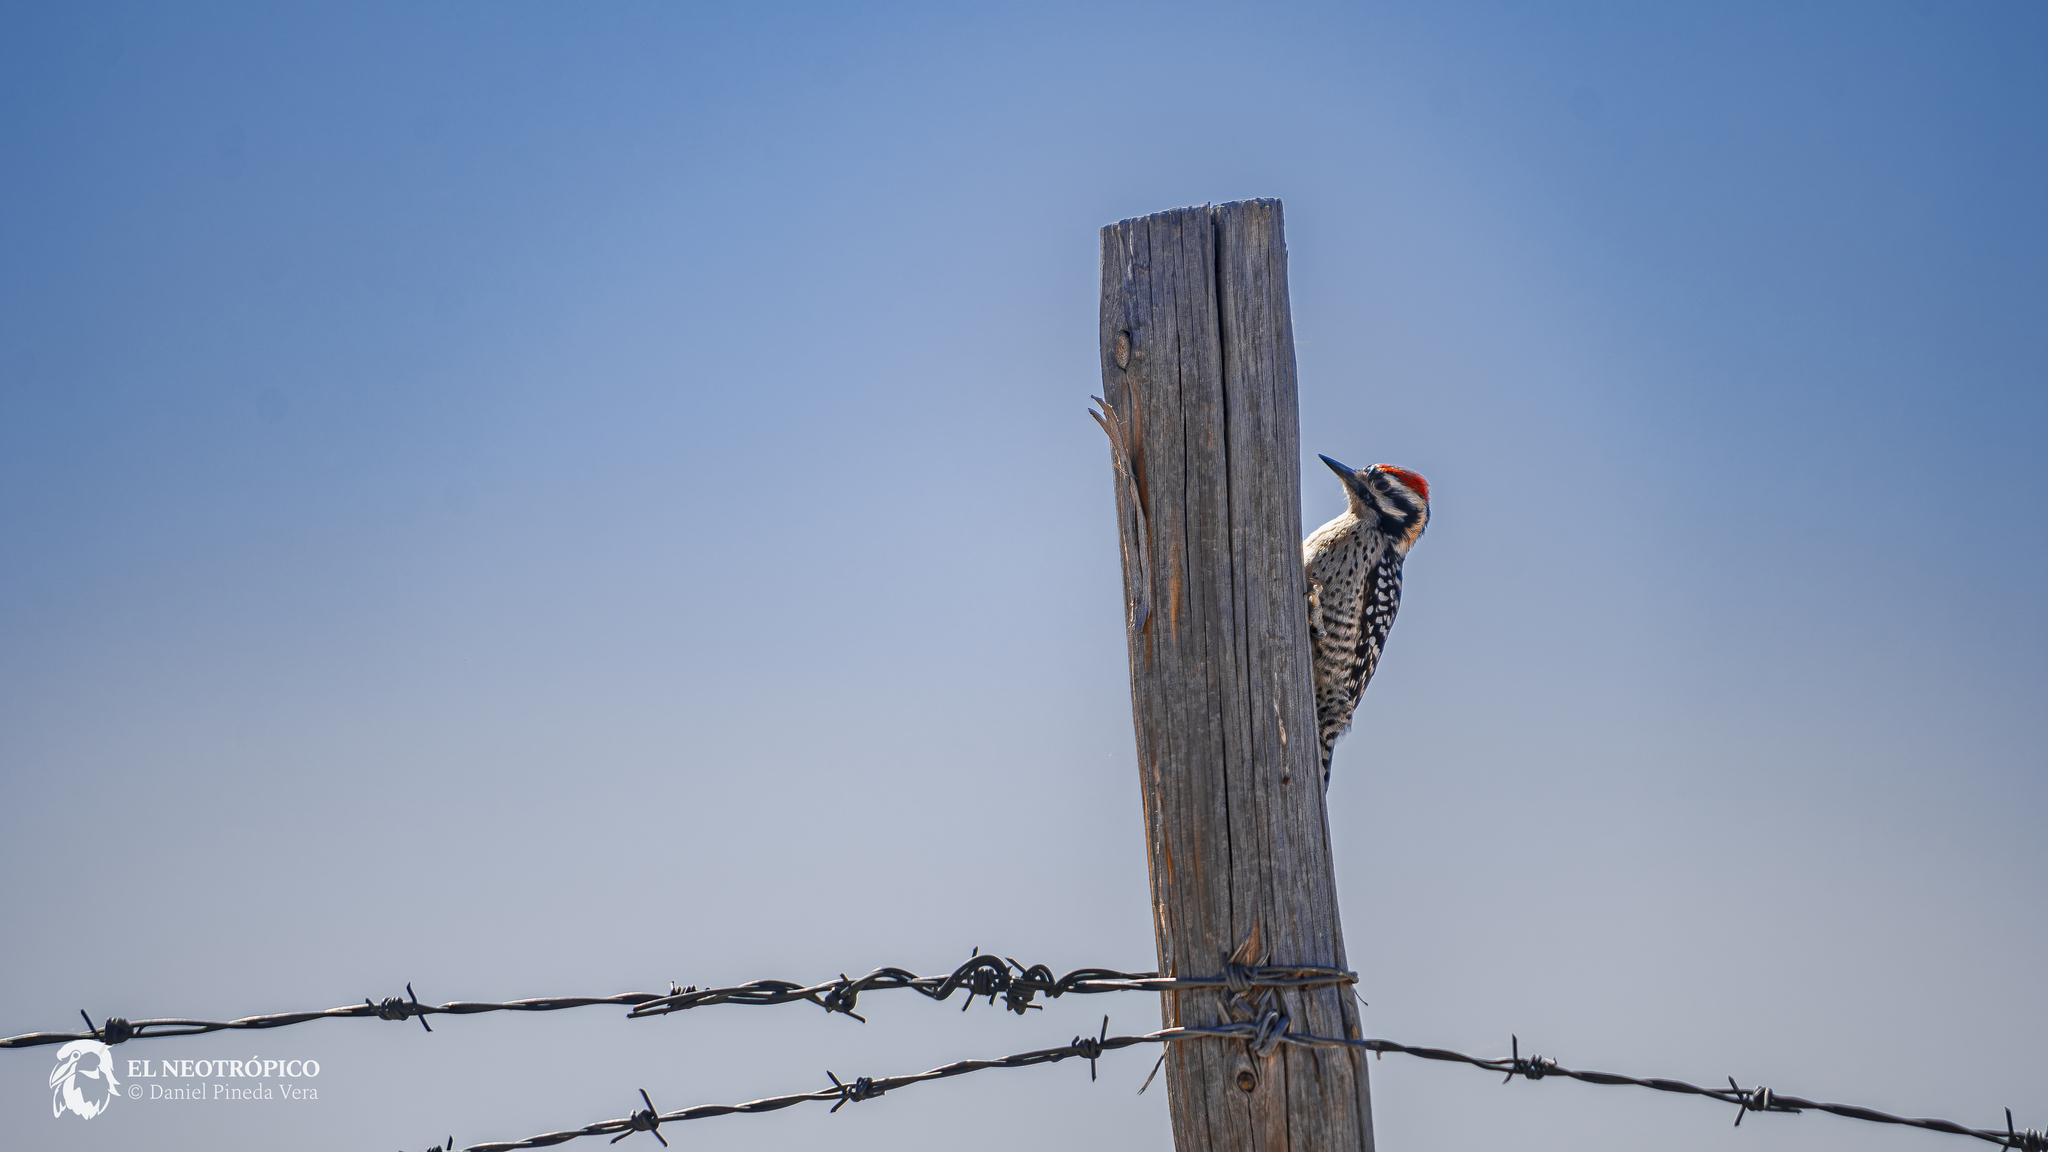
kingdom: Animalia
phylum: Chordata
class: Aves
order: Piciformes
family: Picidae
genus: Dryobates
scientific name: Dryobates scalaris
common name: Ladder-backed woodpecker
